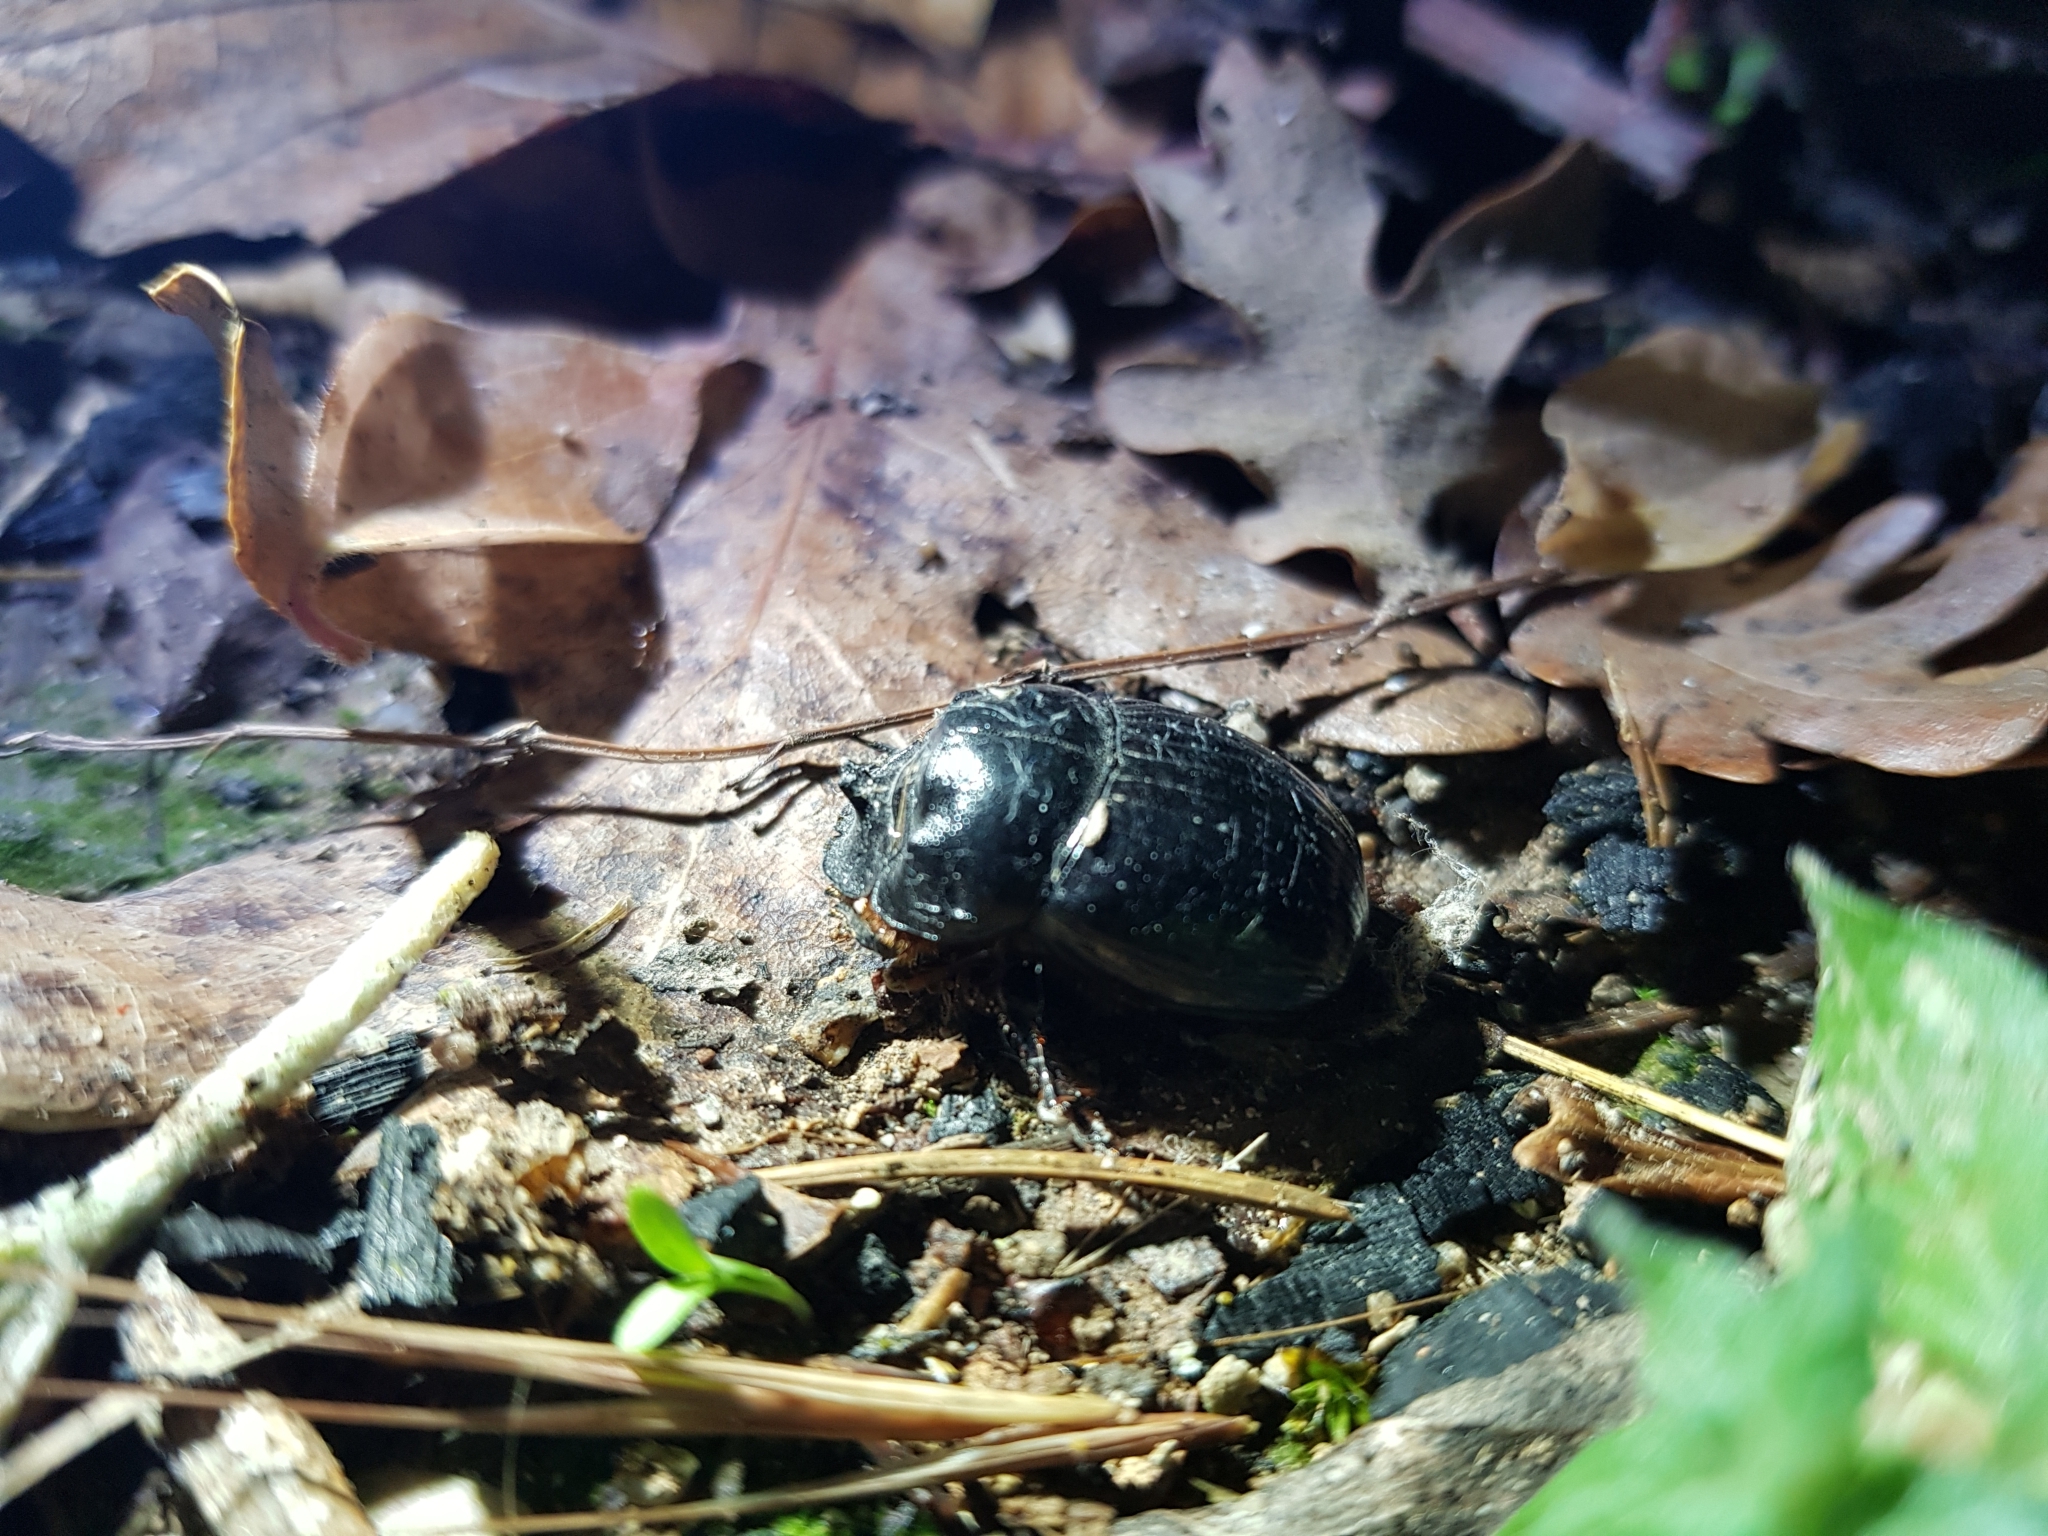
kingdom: Animalia
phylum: Arthropoda
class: Insecta
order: Coleoptera
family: Scarabaeidae
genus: Copris
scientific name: Copris lunaris
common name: Horned dung beetle
